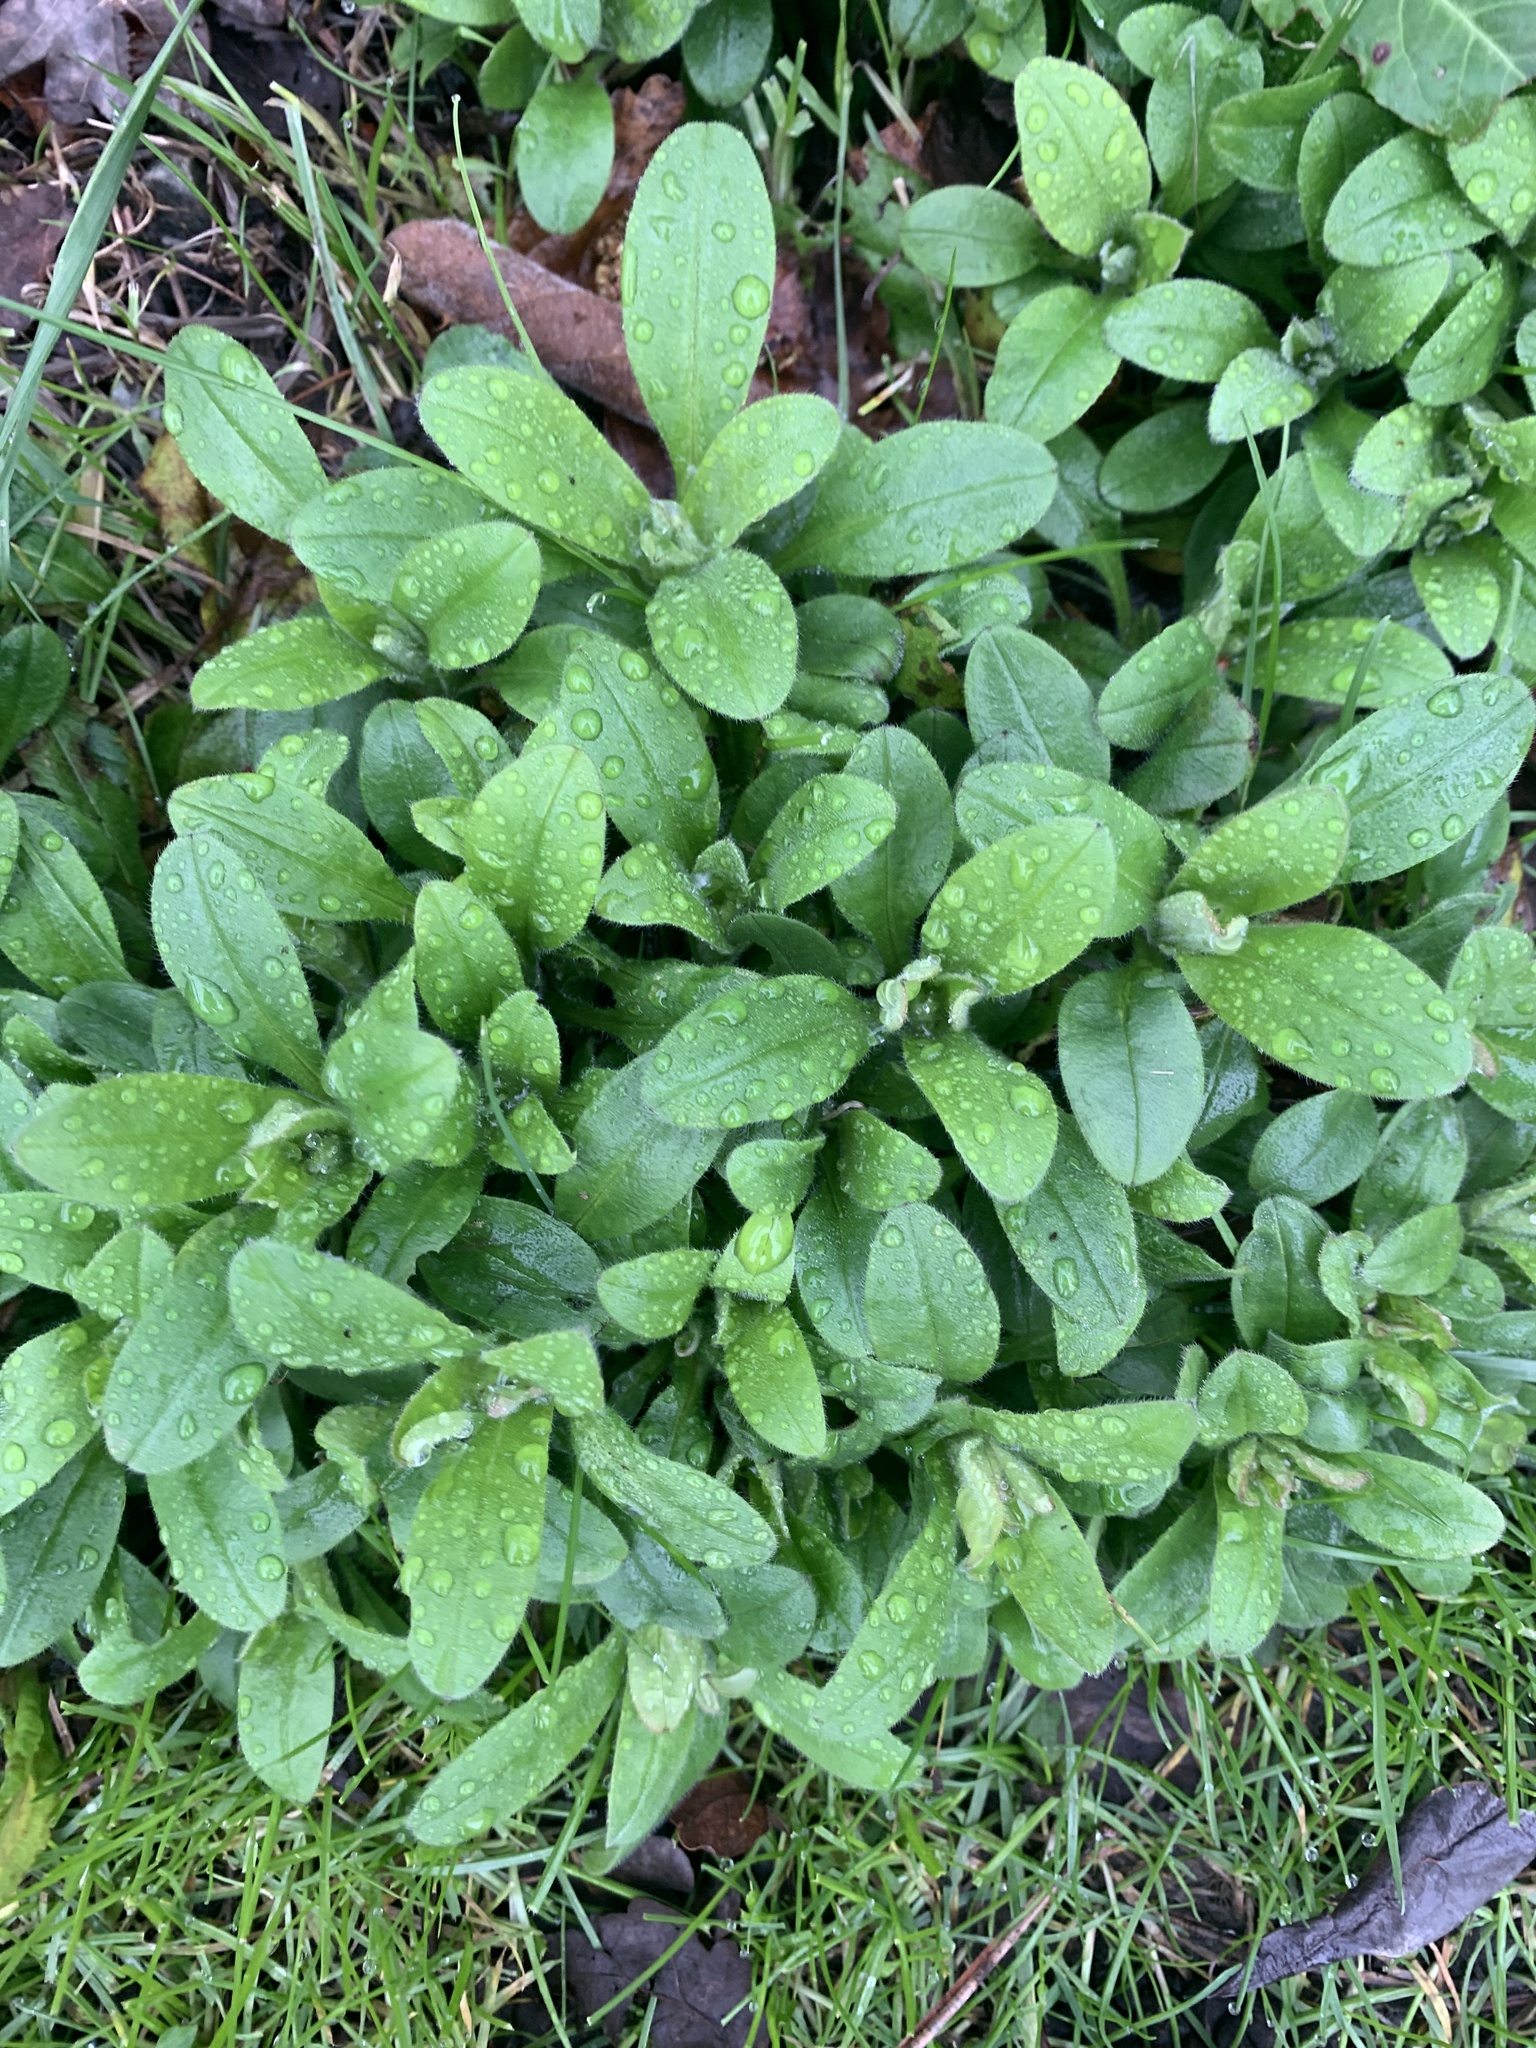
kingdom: Plantae
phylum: Tracheophyta
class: Magnoliopsida
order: Boraginales
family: Boraginaceae
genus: Myosotis
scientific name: Myosotis sylvatica
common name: Wood forget-me-not
